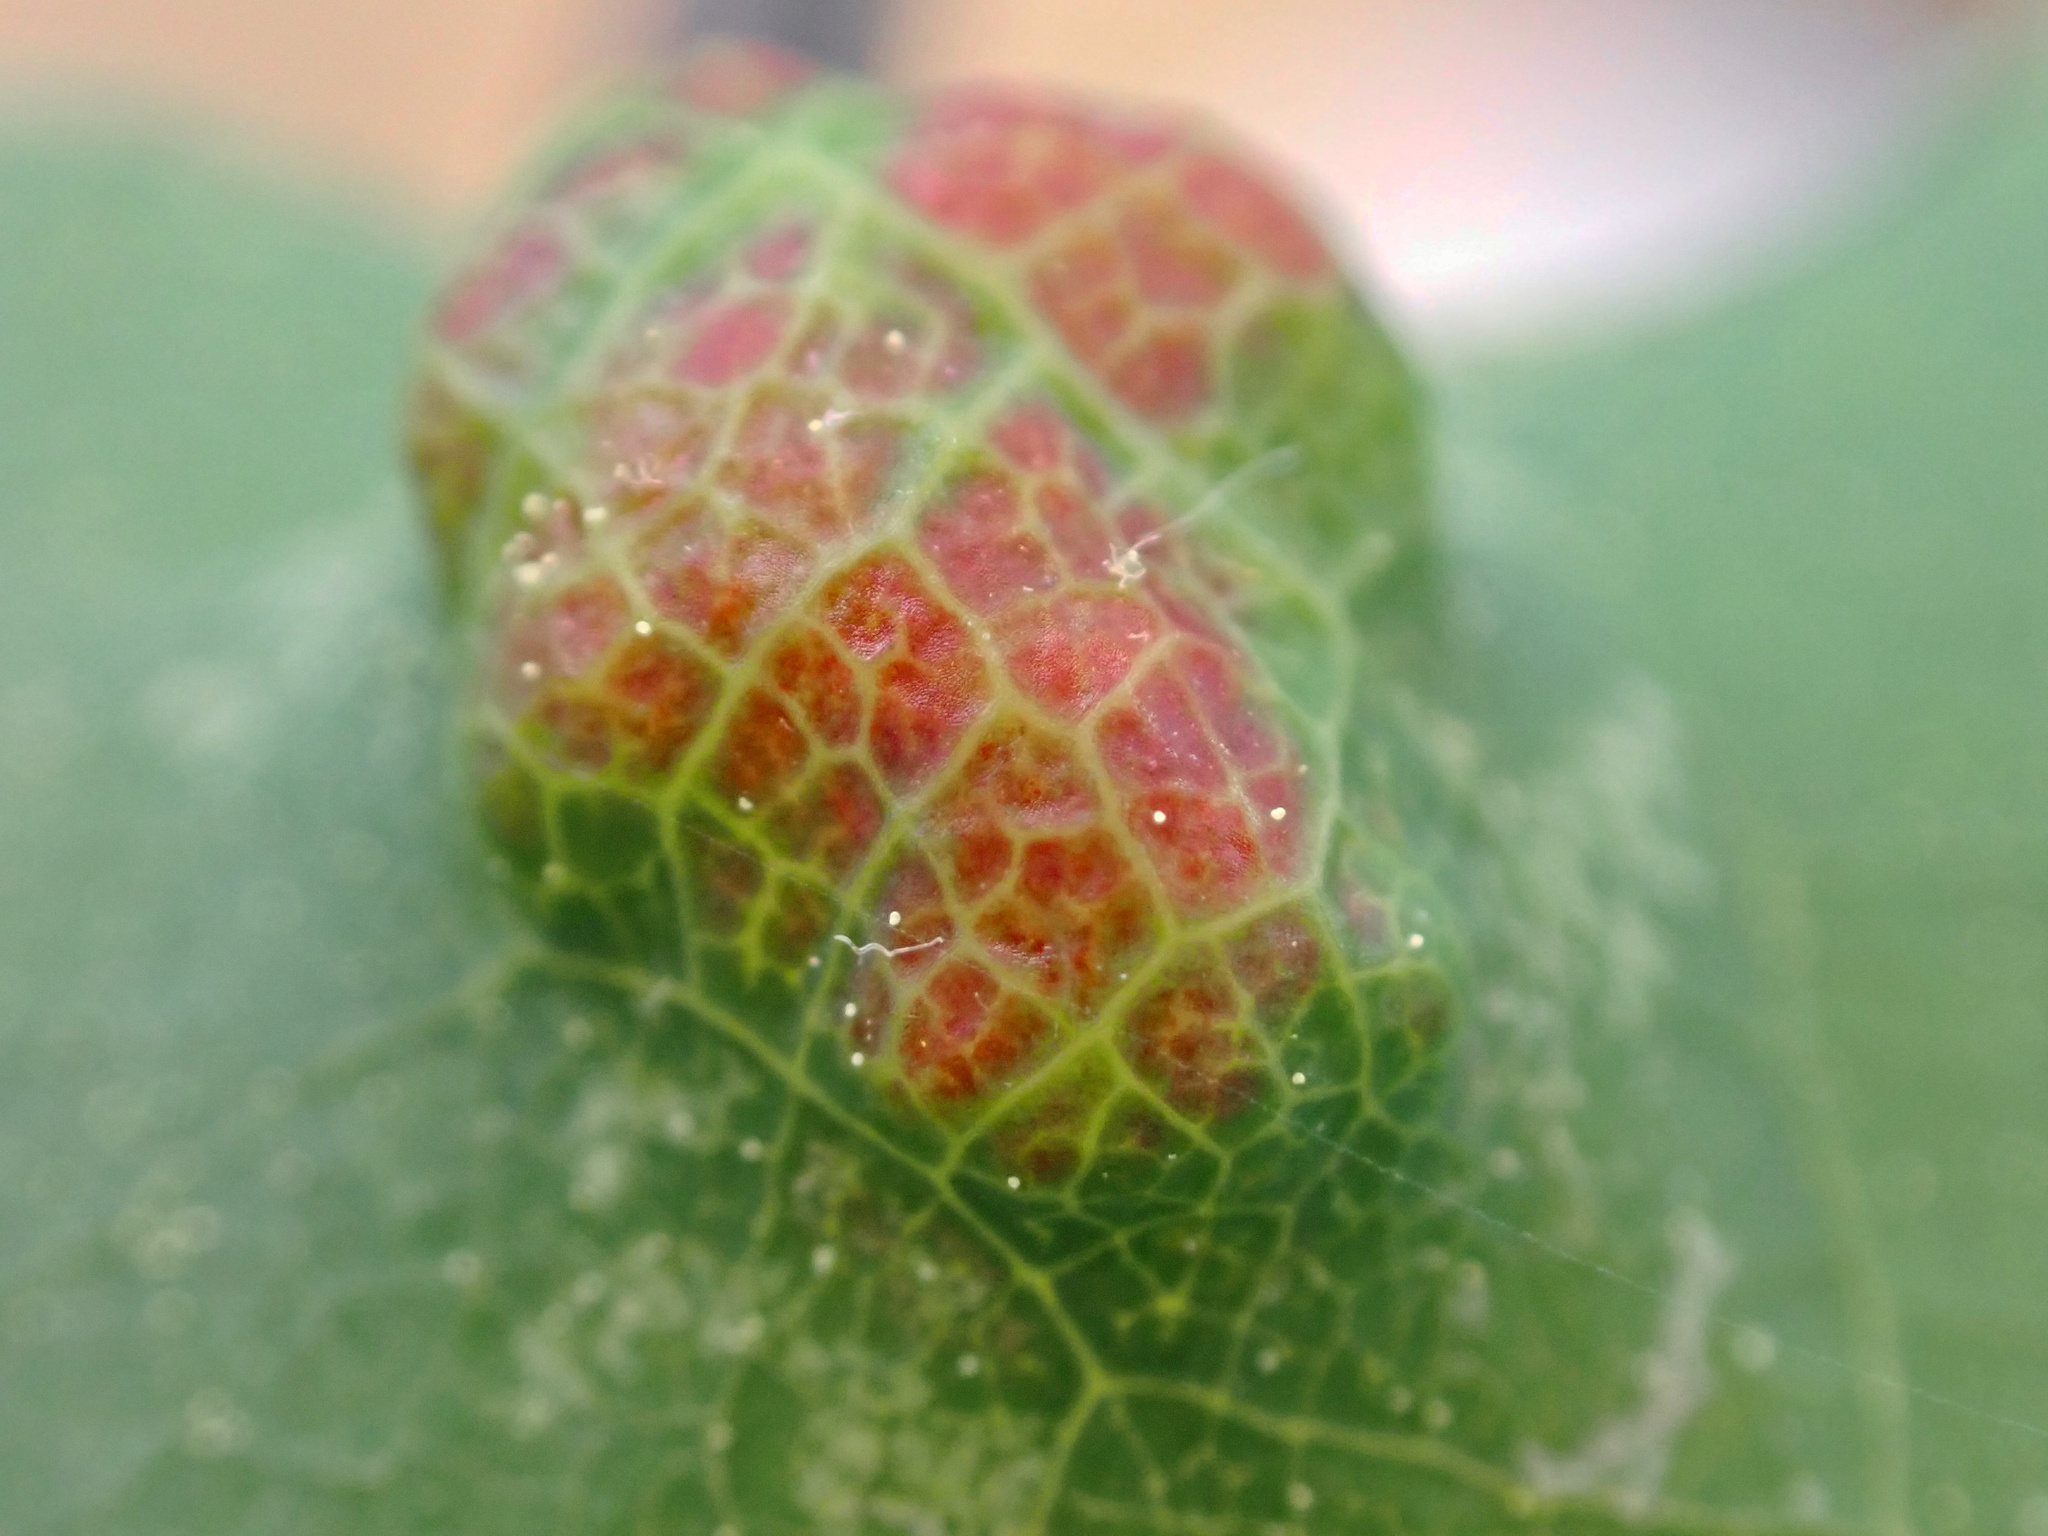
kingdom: Animalia
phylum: Arthropoda
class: Arachnida
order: Trombidiformes
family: Eriophyidae
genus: Aceria
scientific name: Aceria
